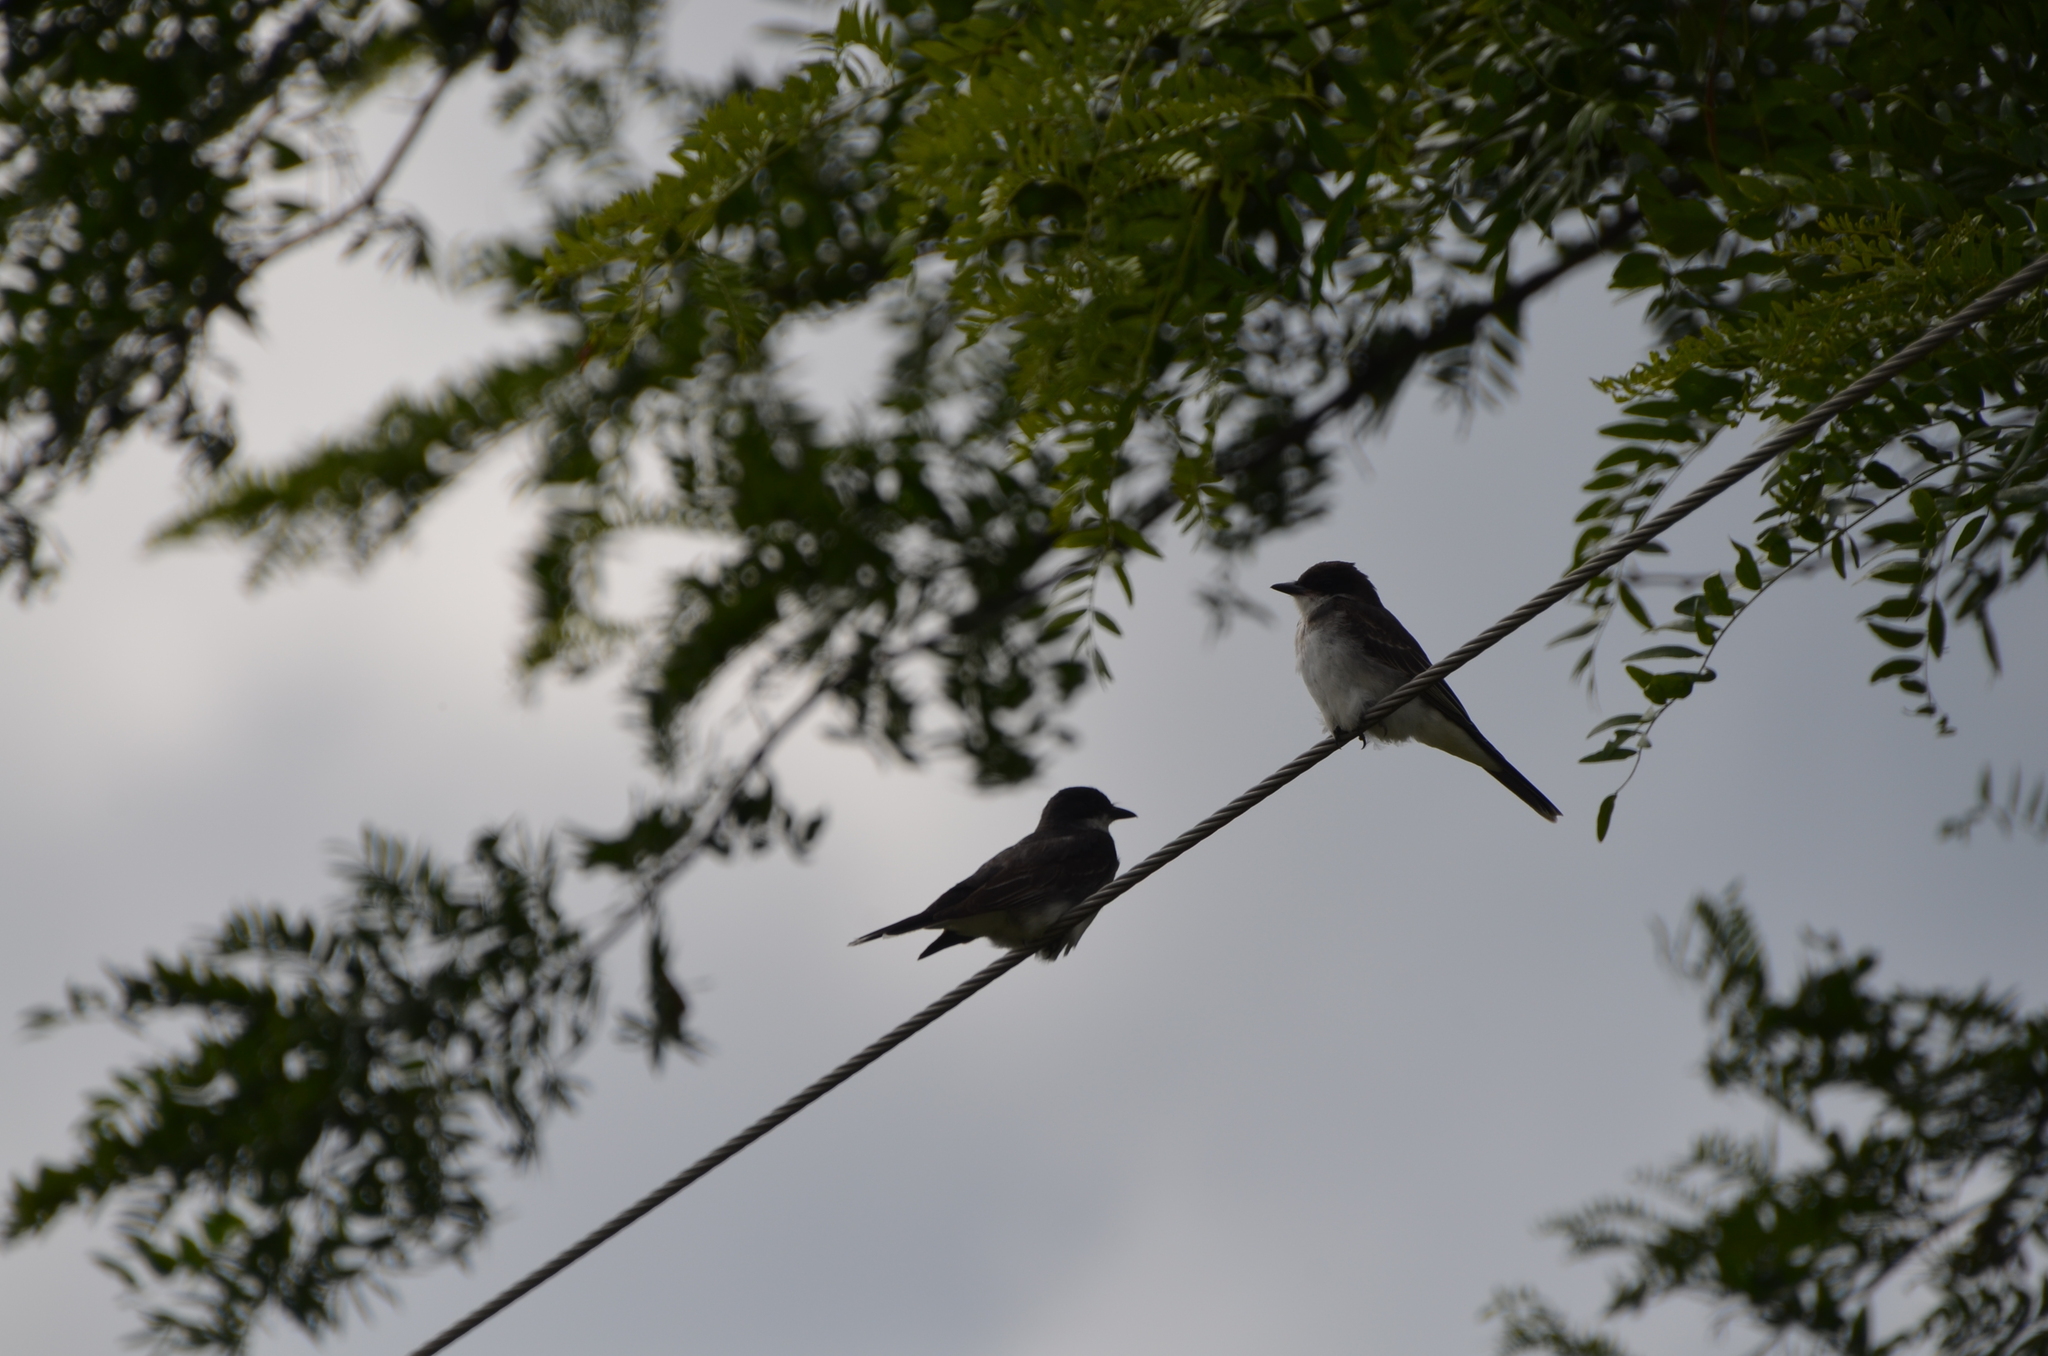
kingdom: Animalia
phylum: Chordata
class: Aves
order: Passeriformes
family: Tyrannidae
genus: Tyrannus
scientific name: Tyrannus tyrannus
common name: Eastern kingbird
